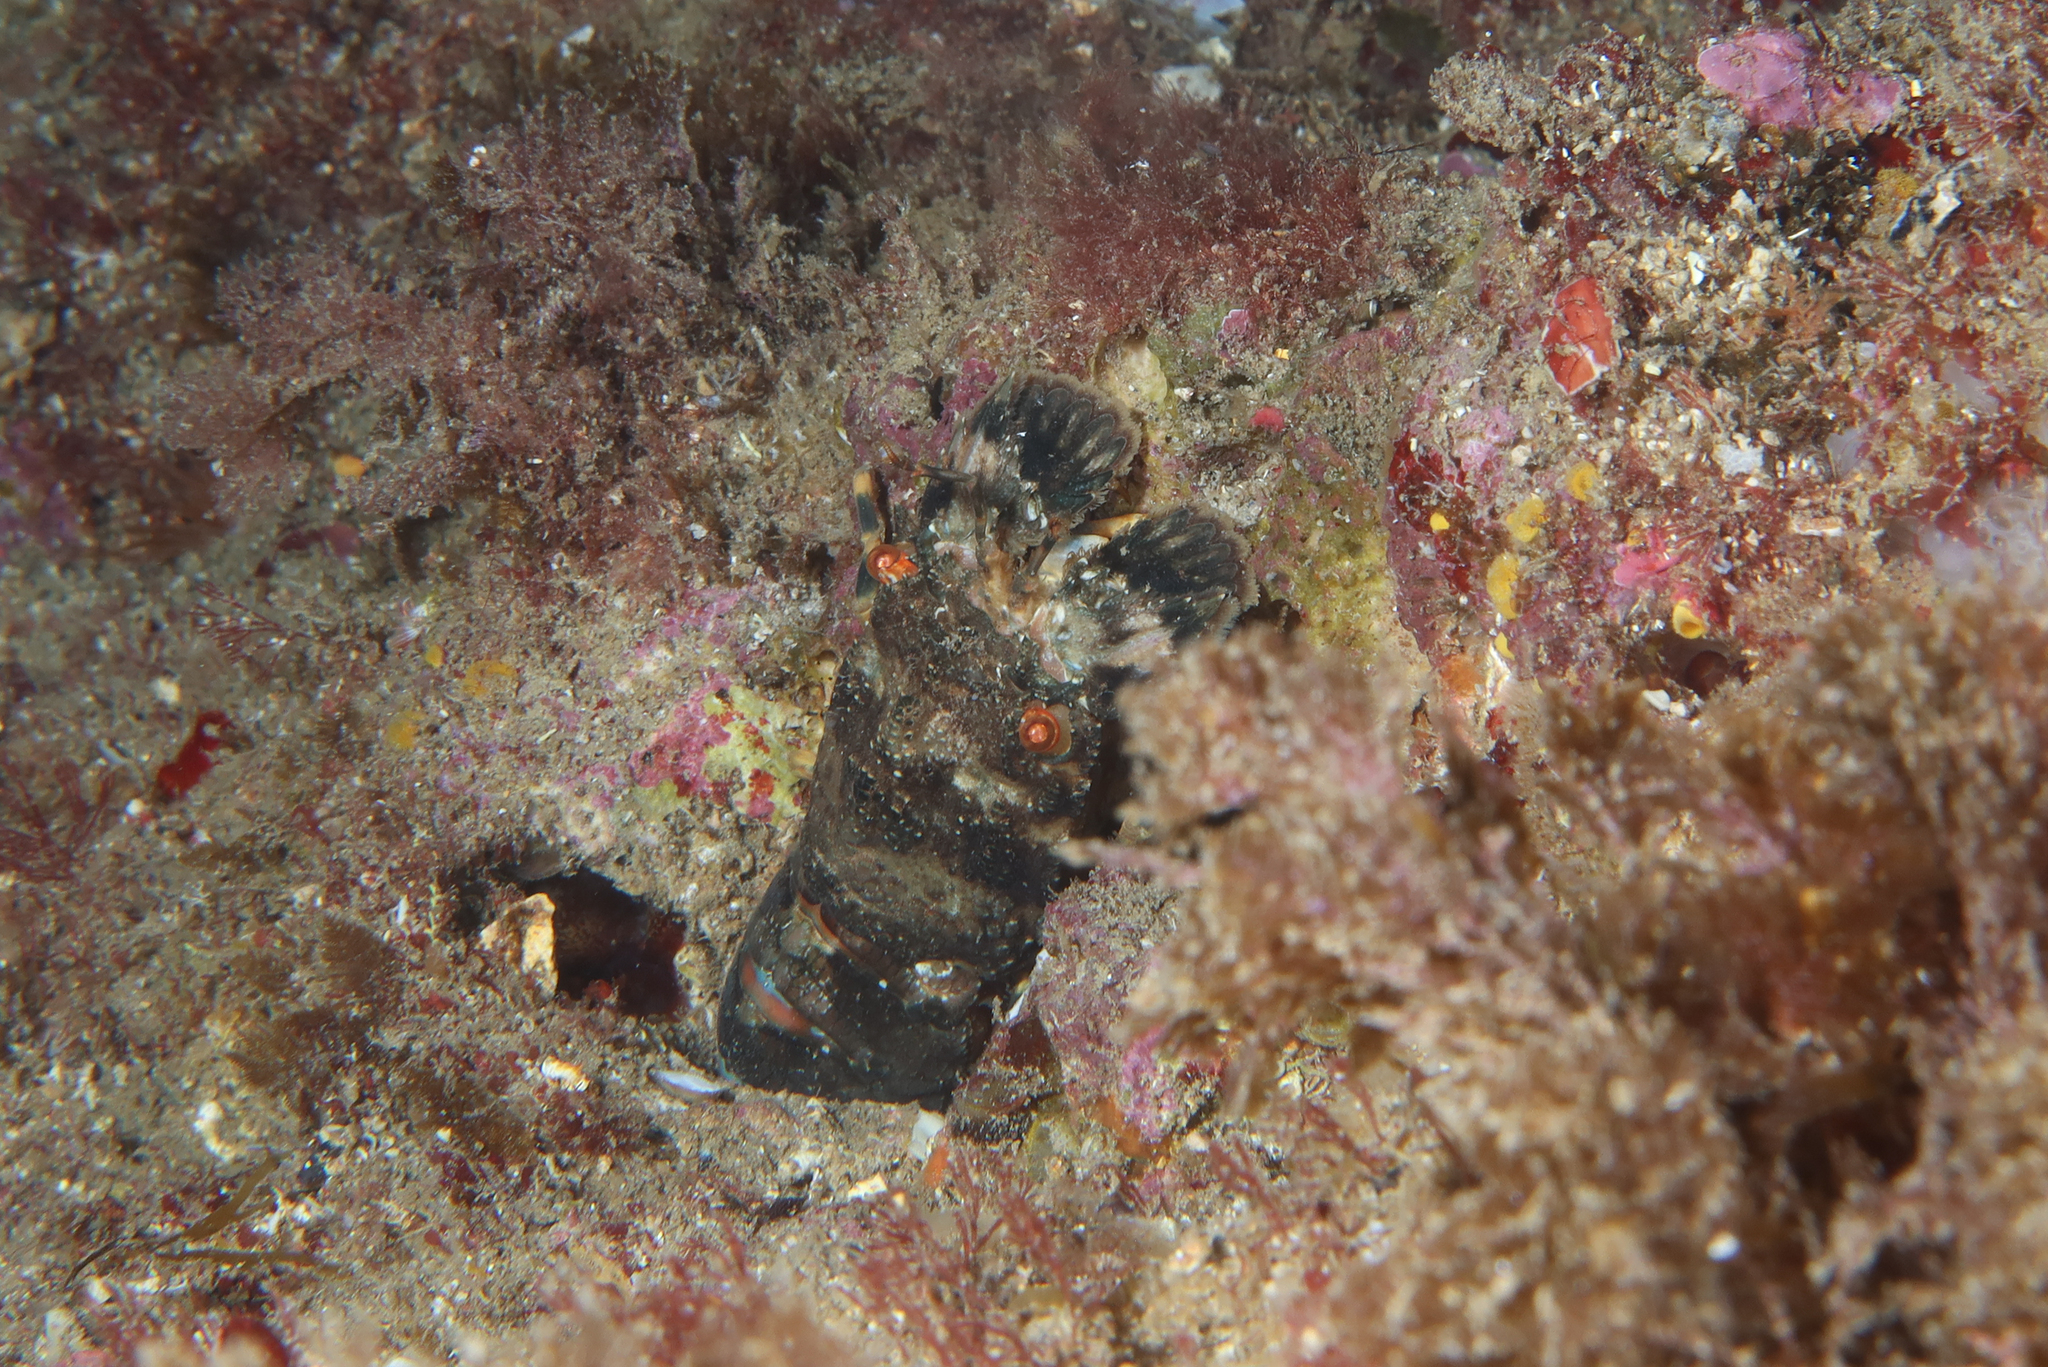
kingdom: Animalia
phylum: Arthropoda
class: Malacostraca
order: Decapoda
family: Scyllaridae
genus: Scyllarus
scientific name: Scyllarus arctus
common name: Small european locust lobster
